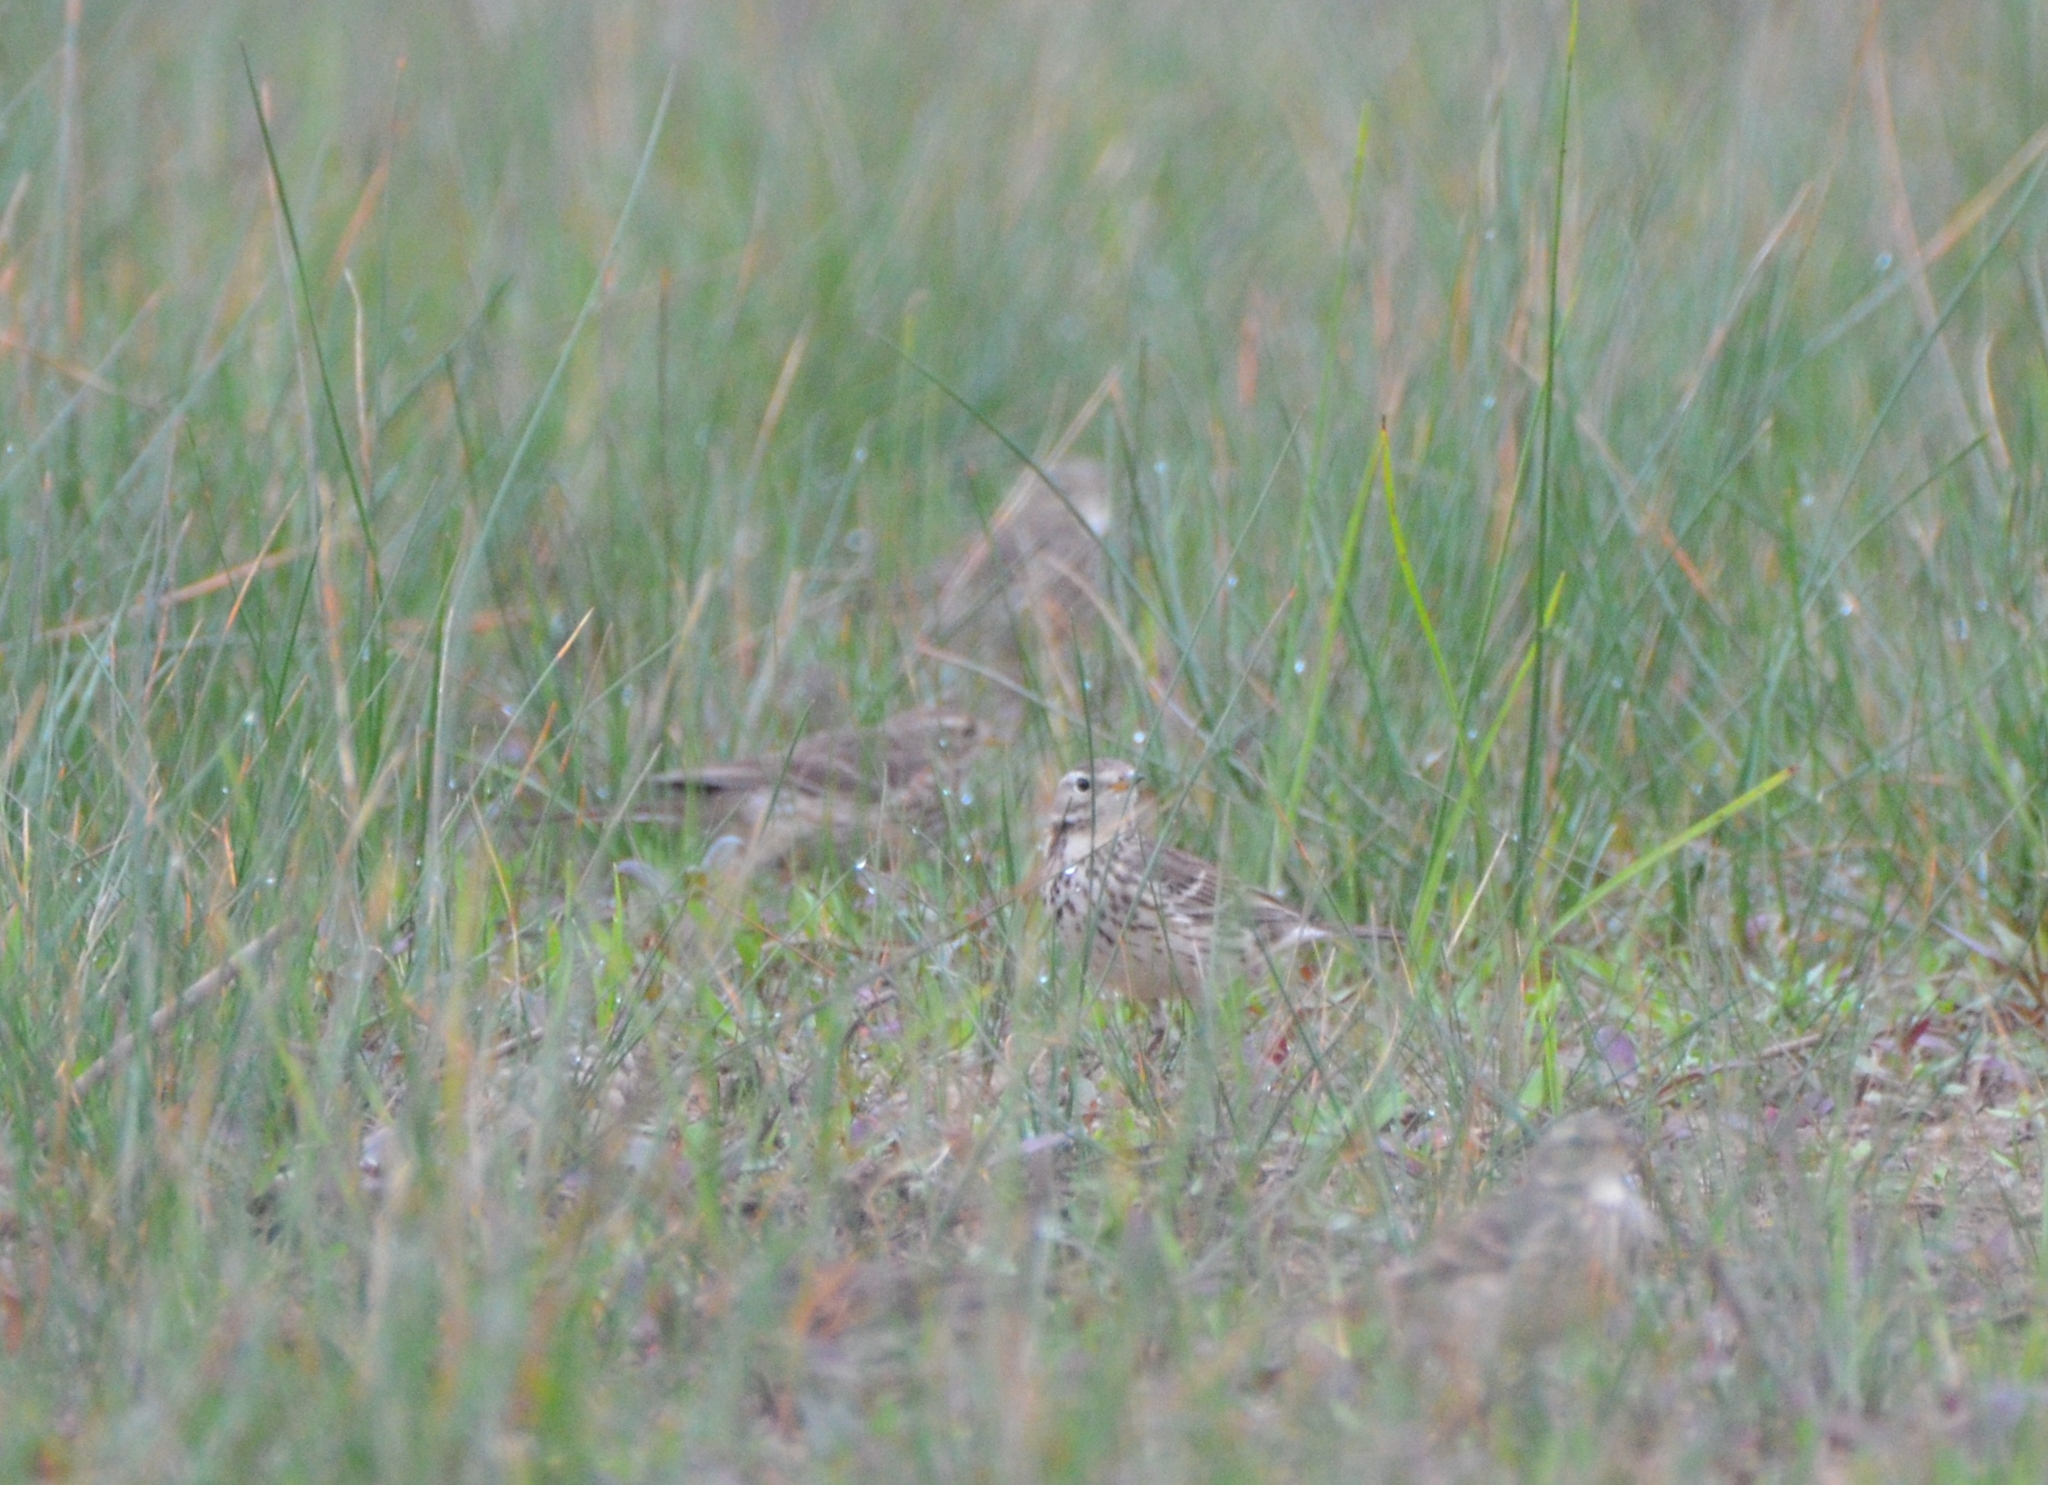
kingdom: Animalia
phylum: Chordata
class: Aves
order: Passeriformes
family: Motacillidae
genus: Anthus
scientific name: Anthus rubescens
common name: Buff-bellied pipit
